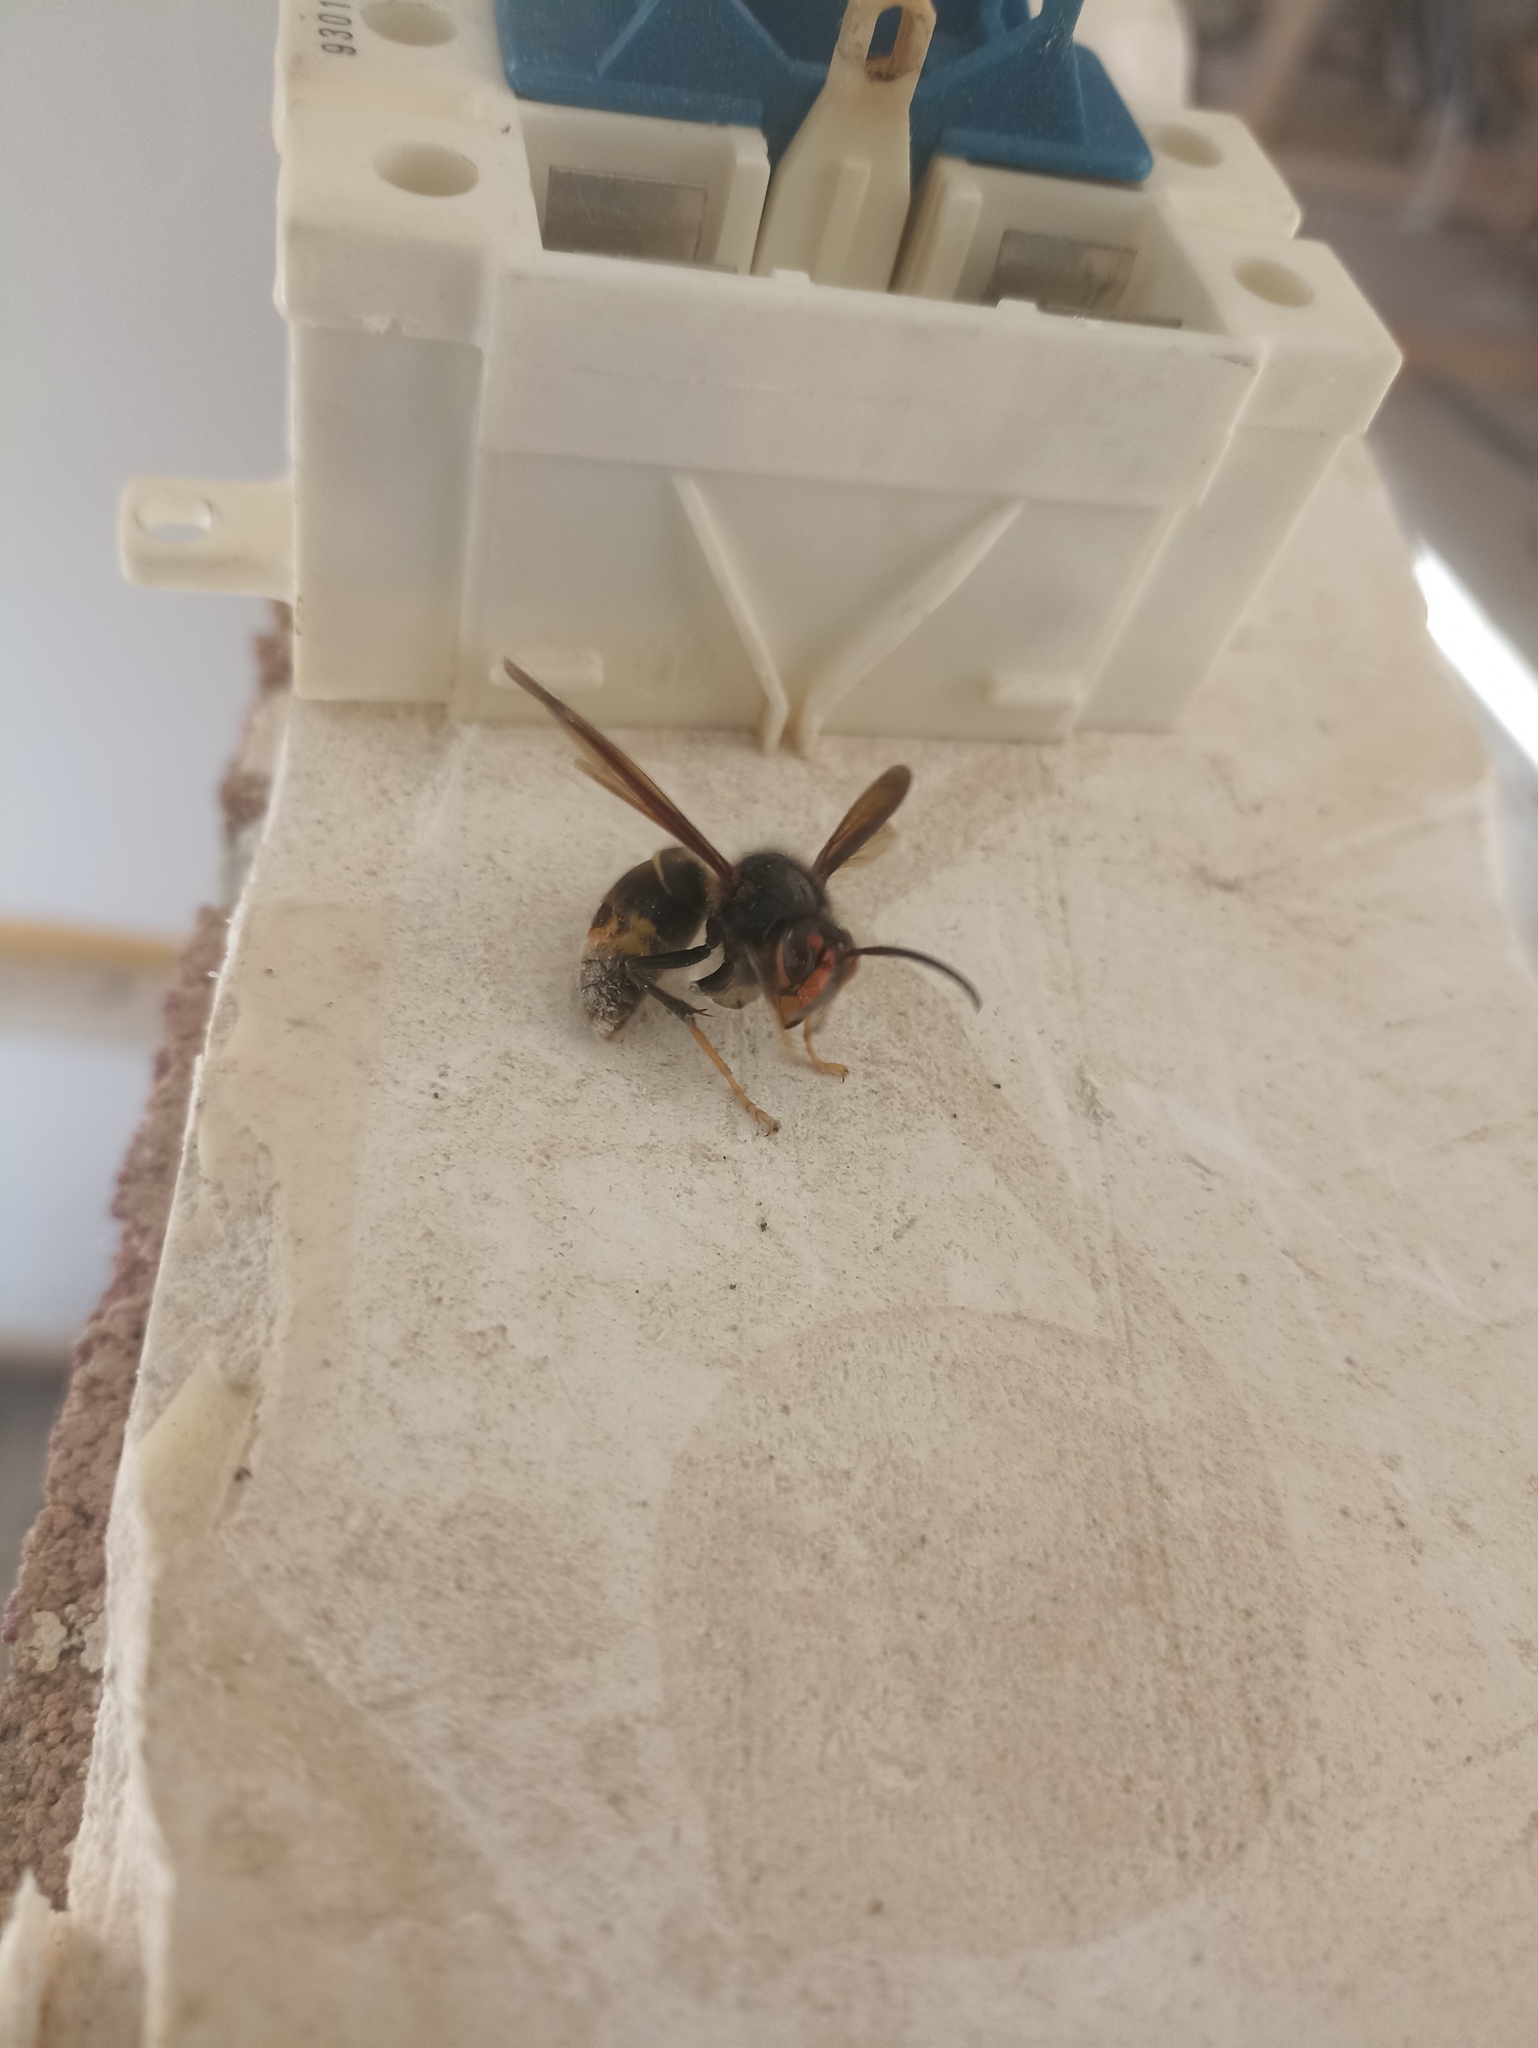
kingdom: Animalia
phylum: Arthropoda
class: Insecta
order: Hymenoptera
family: Vespidae
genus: Vespa
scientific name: Vespa velutina
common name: Asian hornet
